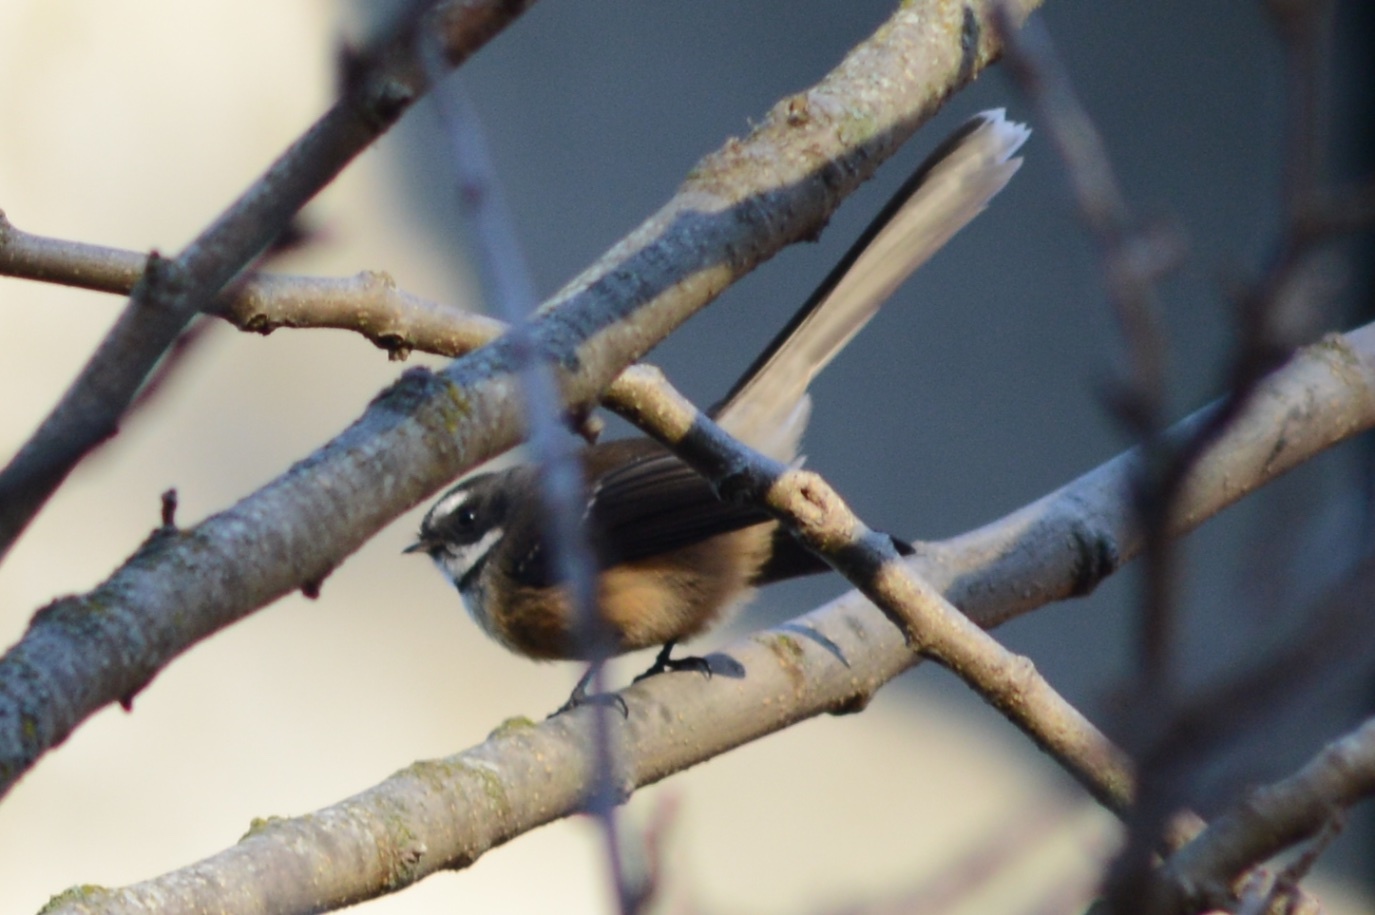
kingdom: Animalia
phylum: Chordata
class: Aves
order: Passeriformes
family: Rhipiduridae
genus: Rhipidura
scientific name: Rhipidura fuliginosa
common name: New zealand fantail
